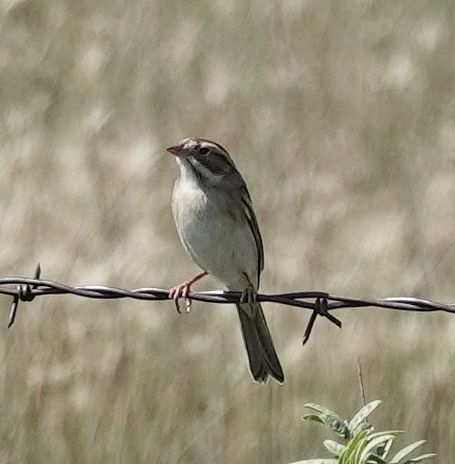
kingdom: Animalia
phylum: Chordata
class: Aves
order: Passeriformes
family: Passerellidae
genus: Spizella
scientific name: Spizella pallida
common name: Clay-colored sparrow
